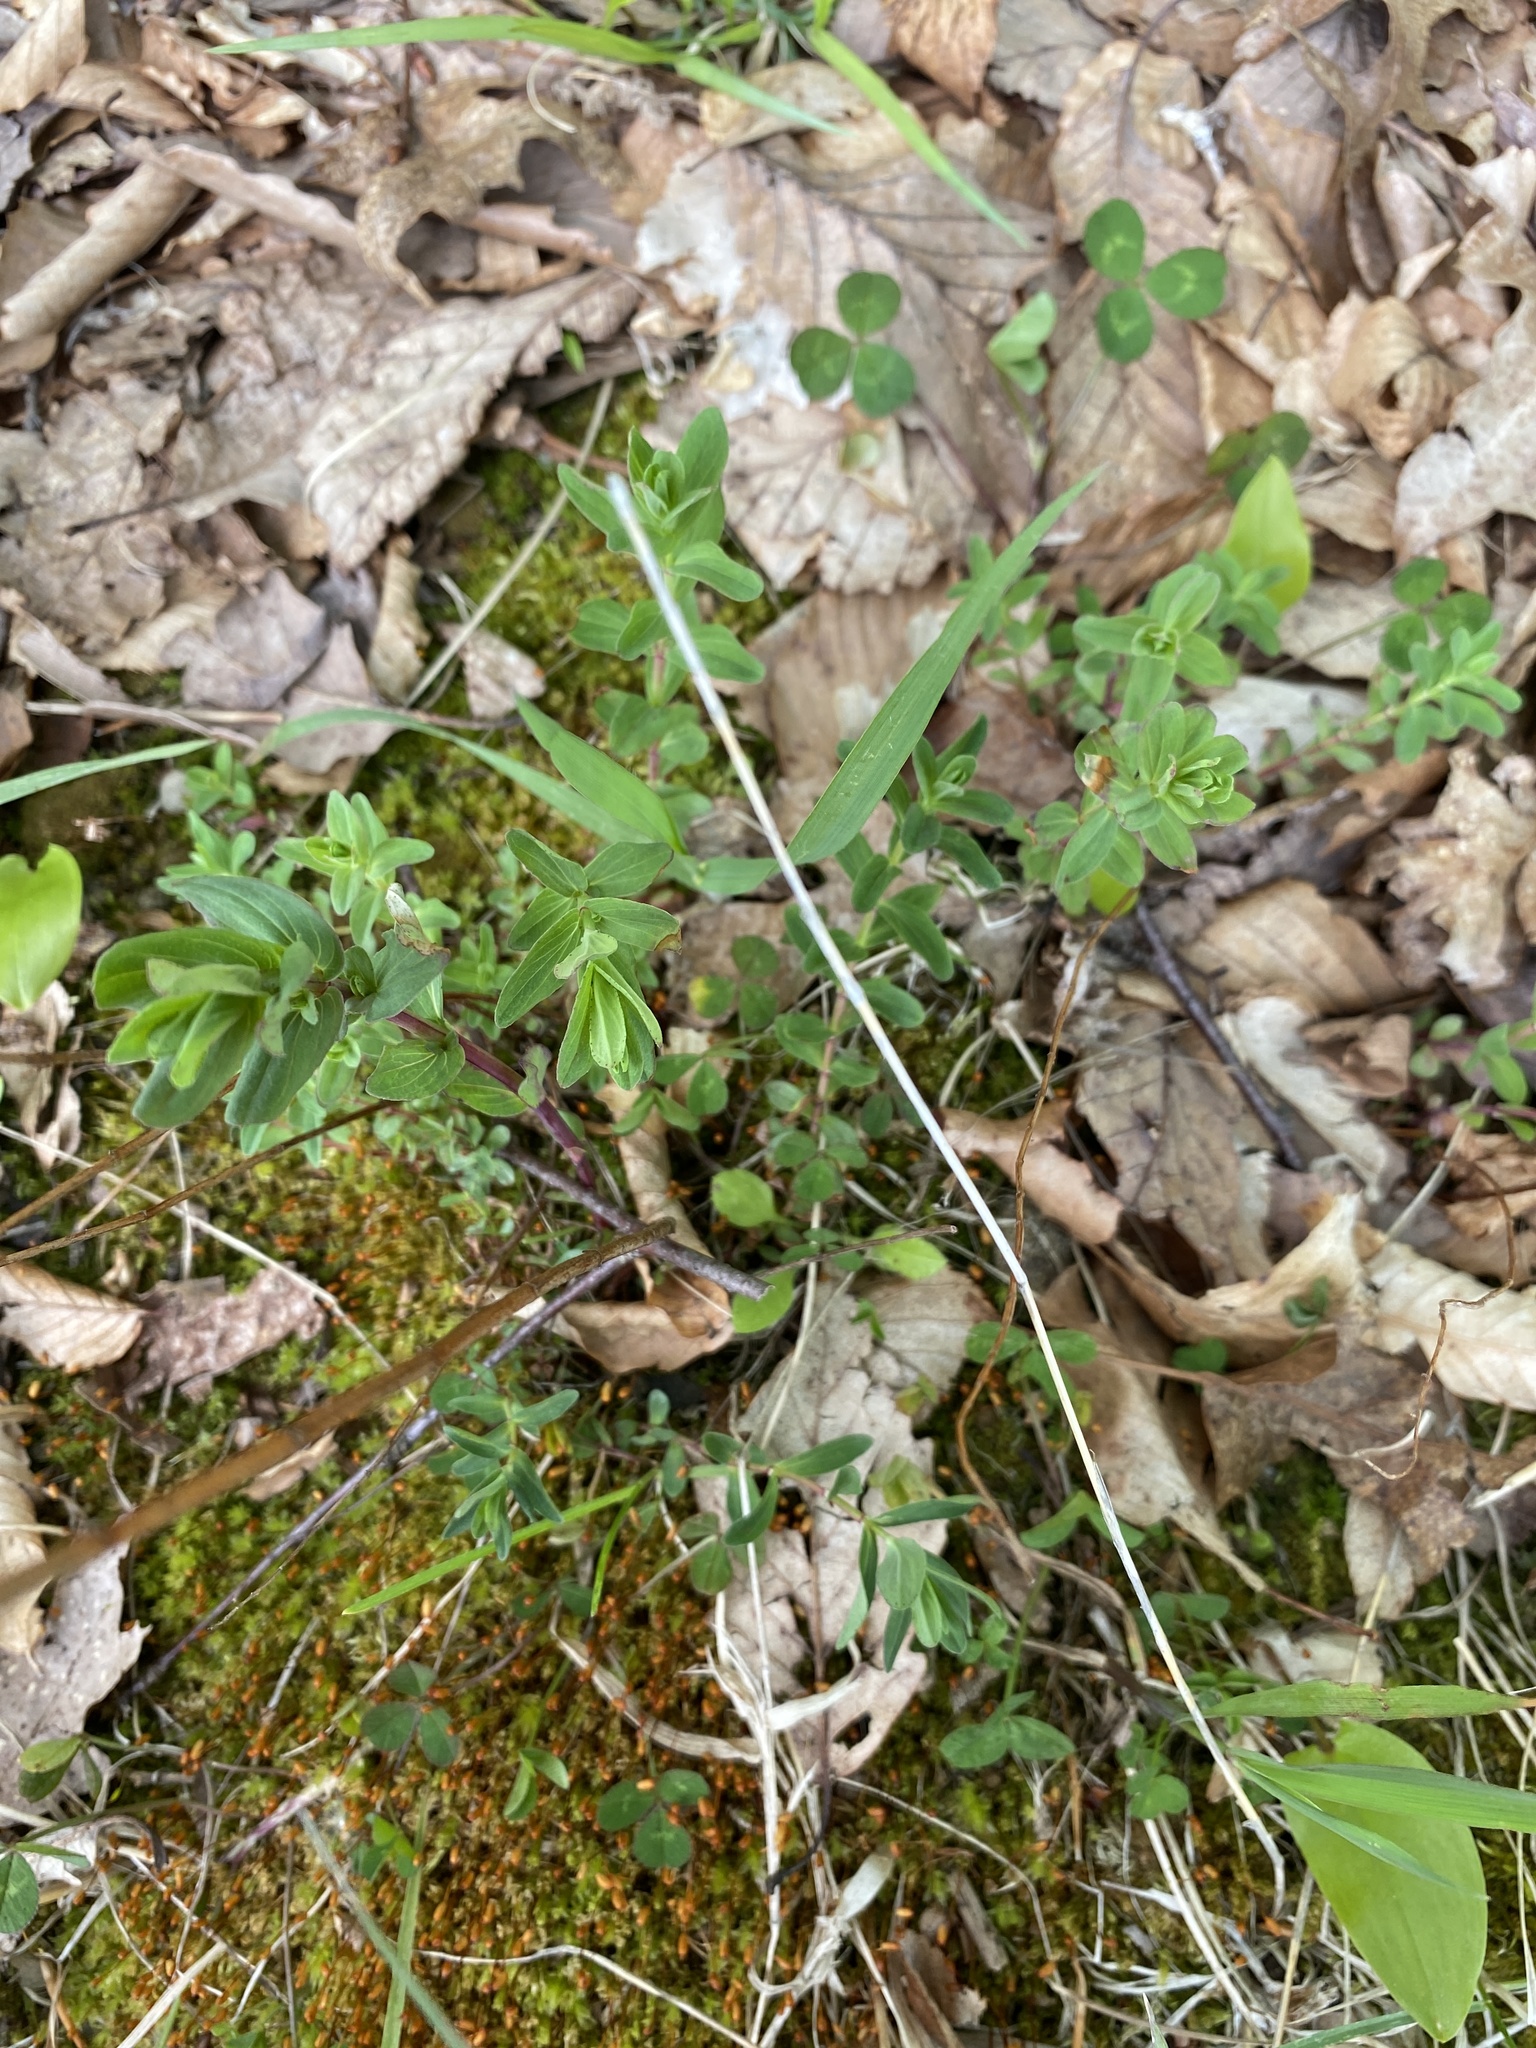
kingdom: Plantae
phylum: Tracheophyta
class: Magnoliopsida
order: Malpighiales
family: Hypericaceae
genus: Hypericum
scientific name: Hypericum punctatum
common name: Spotted st. john's-wort
